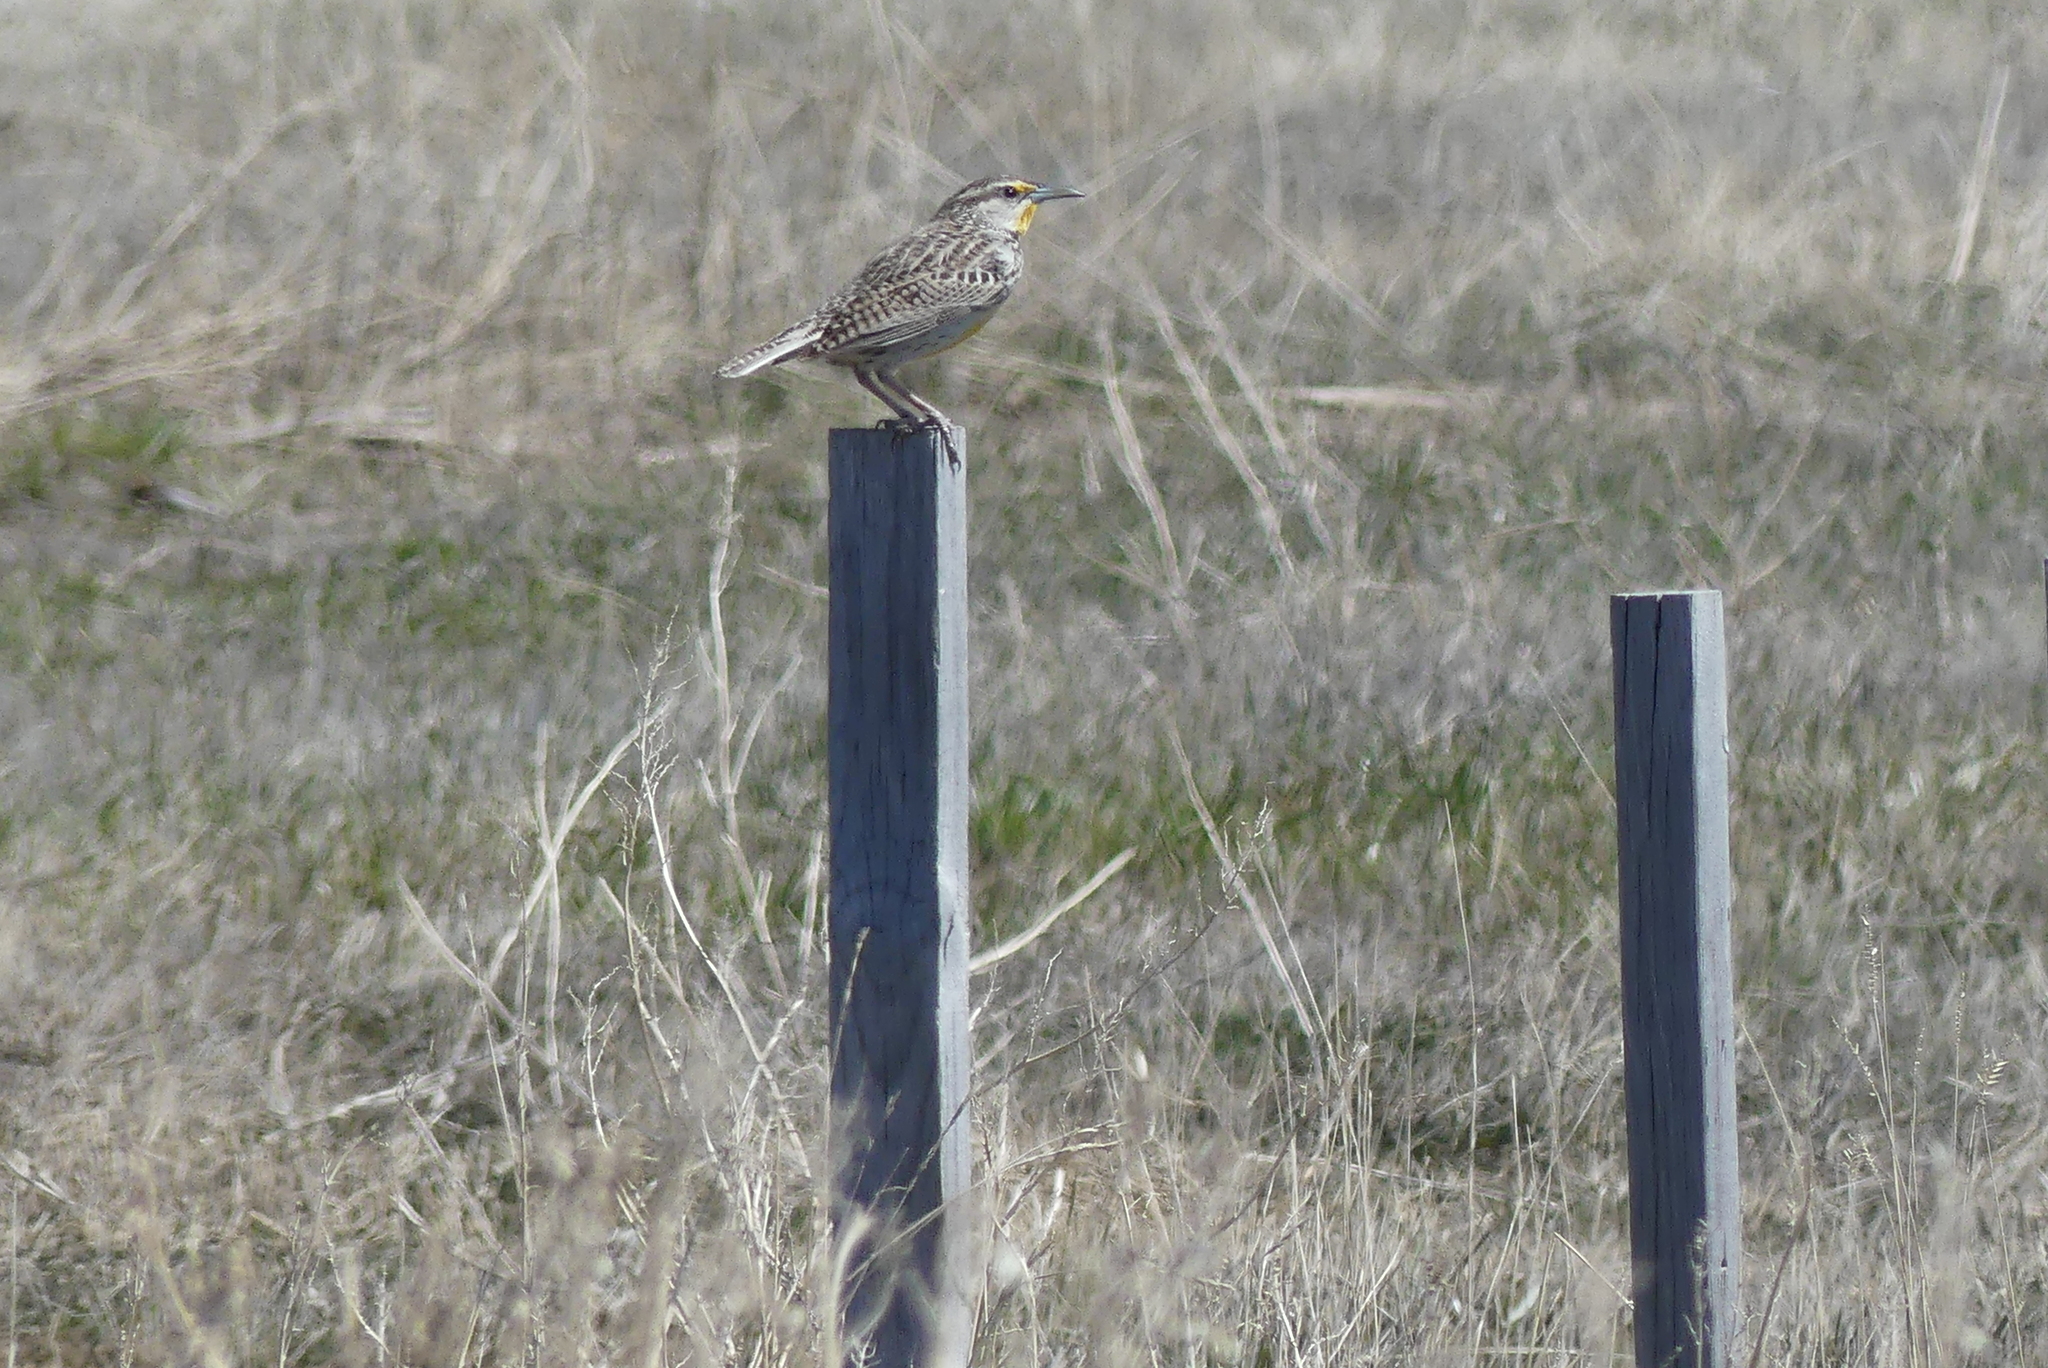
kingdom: Animalia
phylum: Chordata
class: Aves
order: Passeriformes
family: Icteridae
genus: Sturnella
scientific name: Sturnella neglecta
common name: Western meadowlark
